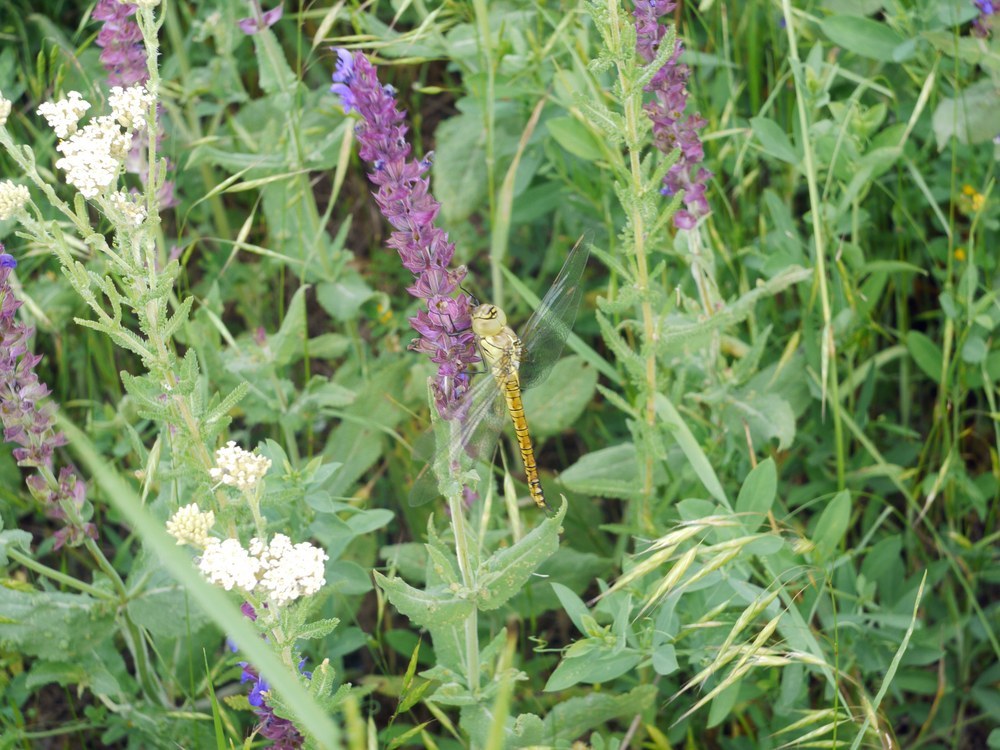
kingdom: Animalia
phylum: Arthropoda
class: Insecta
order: Odonata
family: Aeshnidae
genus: Aeshna
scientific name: Aeshna affinis
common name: Southern migrant hawker
